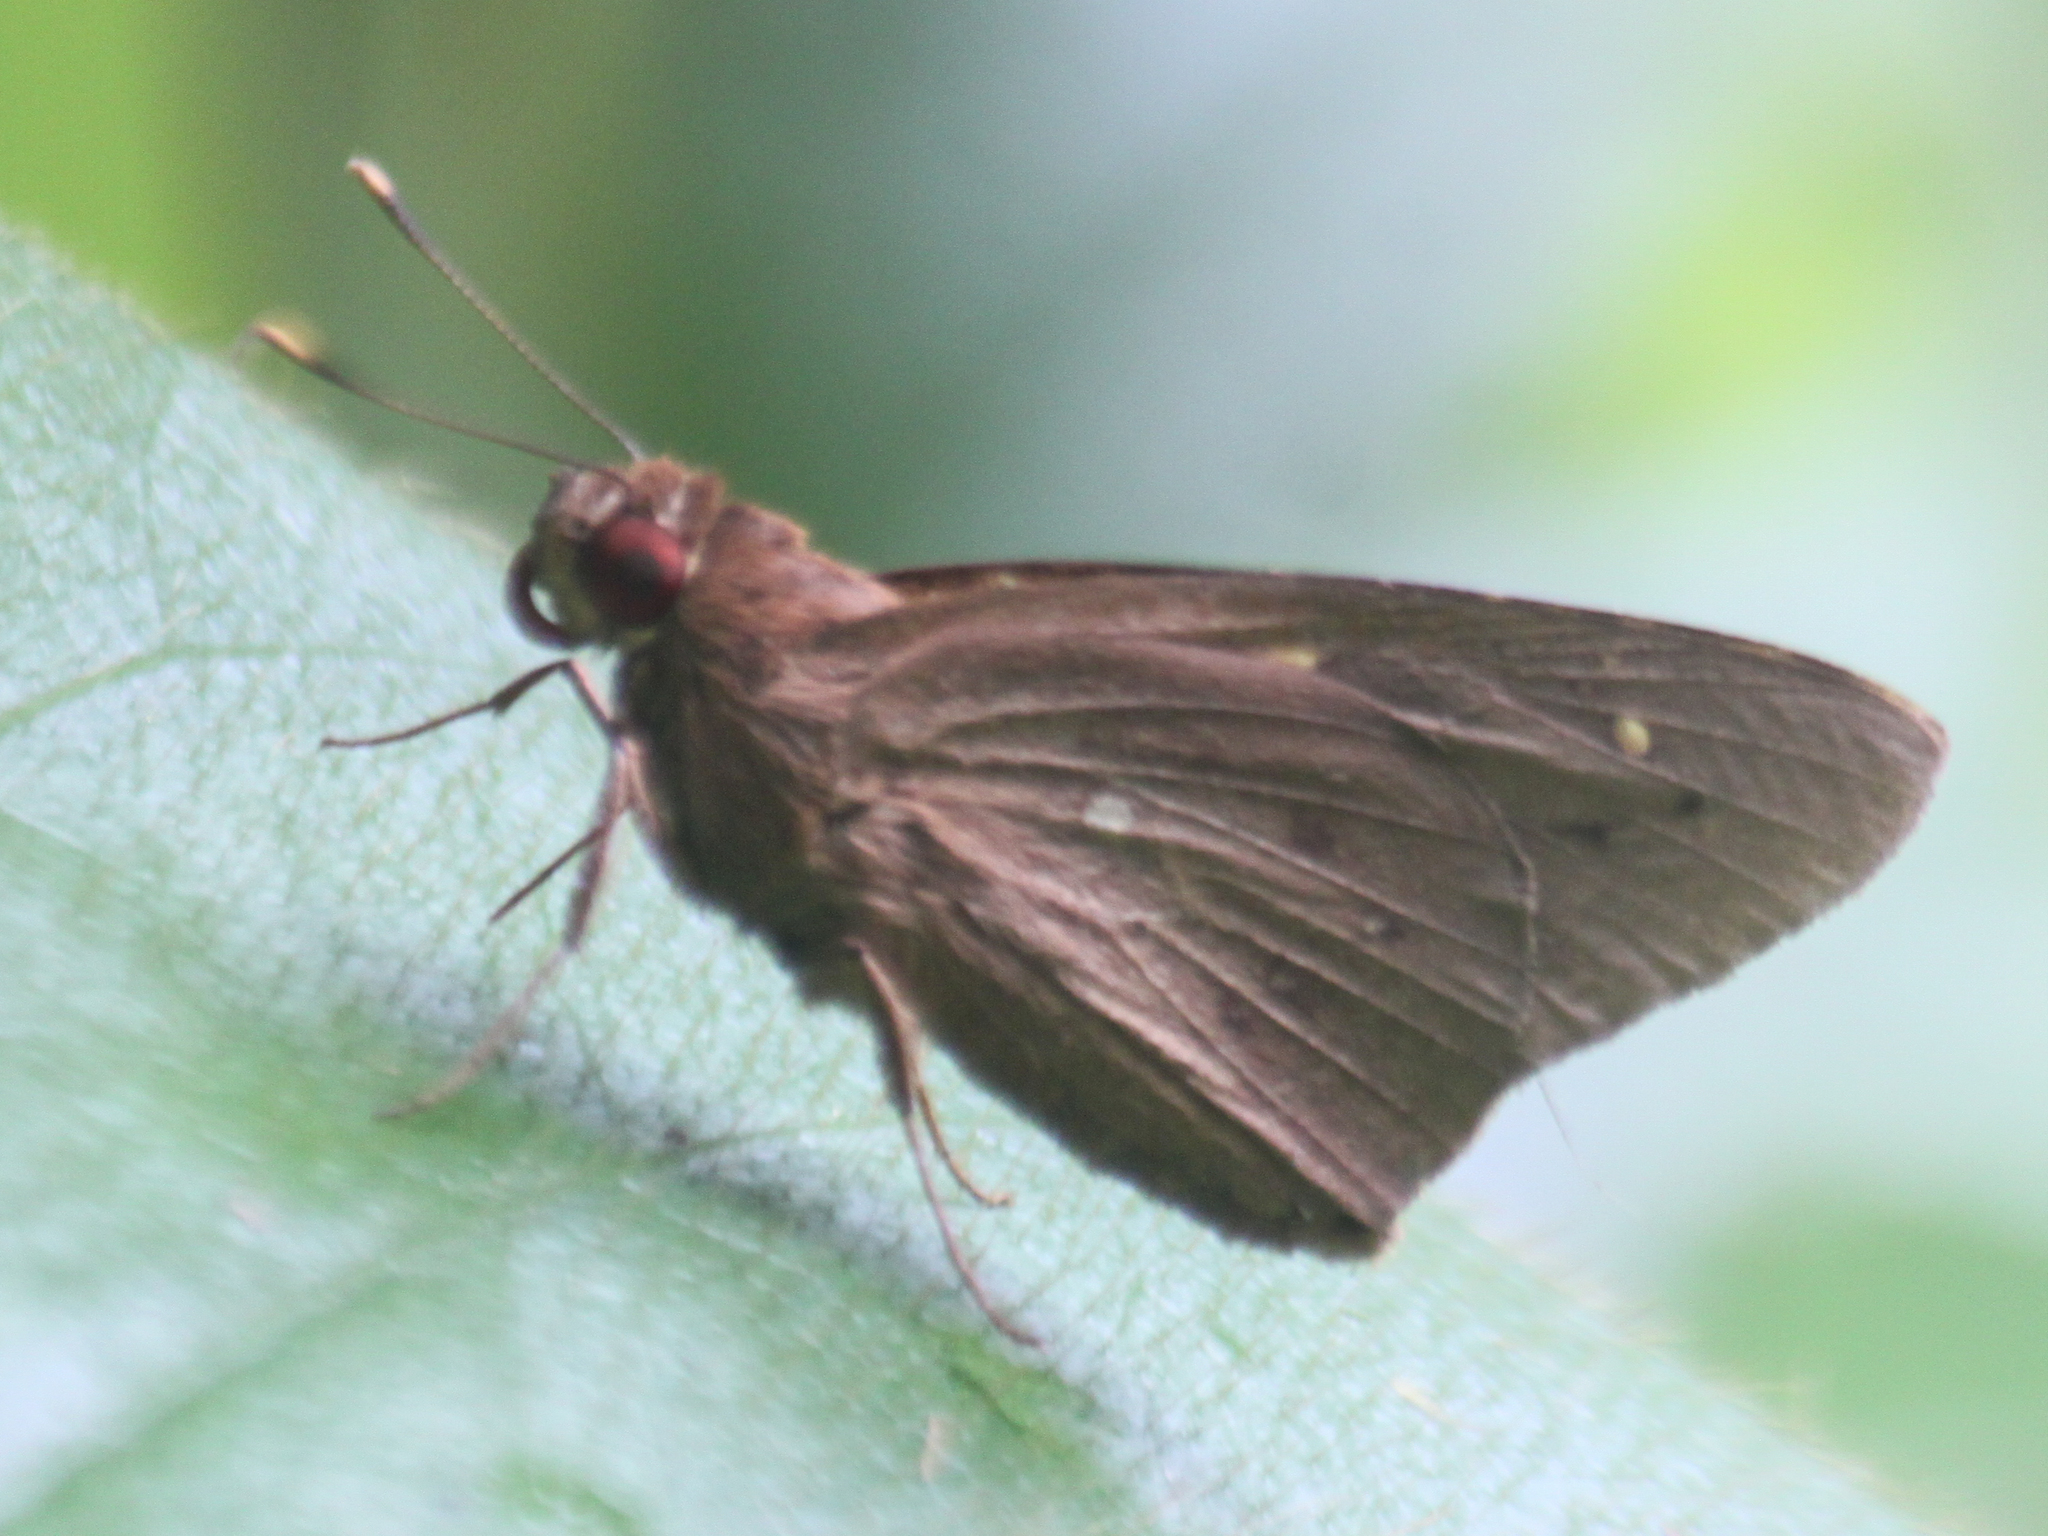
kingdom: Animalia
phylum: Arthropoda
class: Insecta
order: Lepidoptera
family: Hesperiidae
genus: Hidari
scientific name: Hidari irava
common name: Coconut skipper
